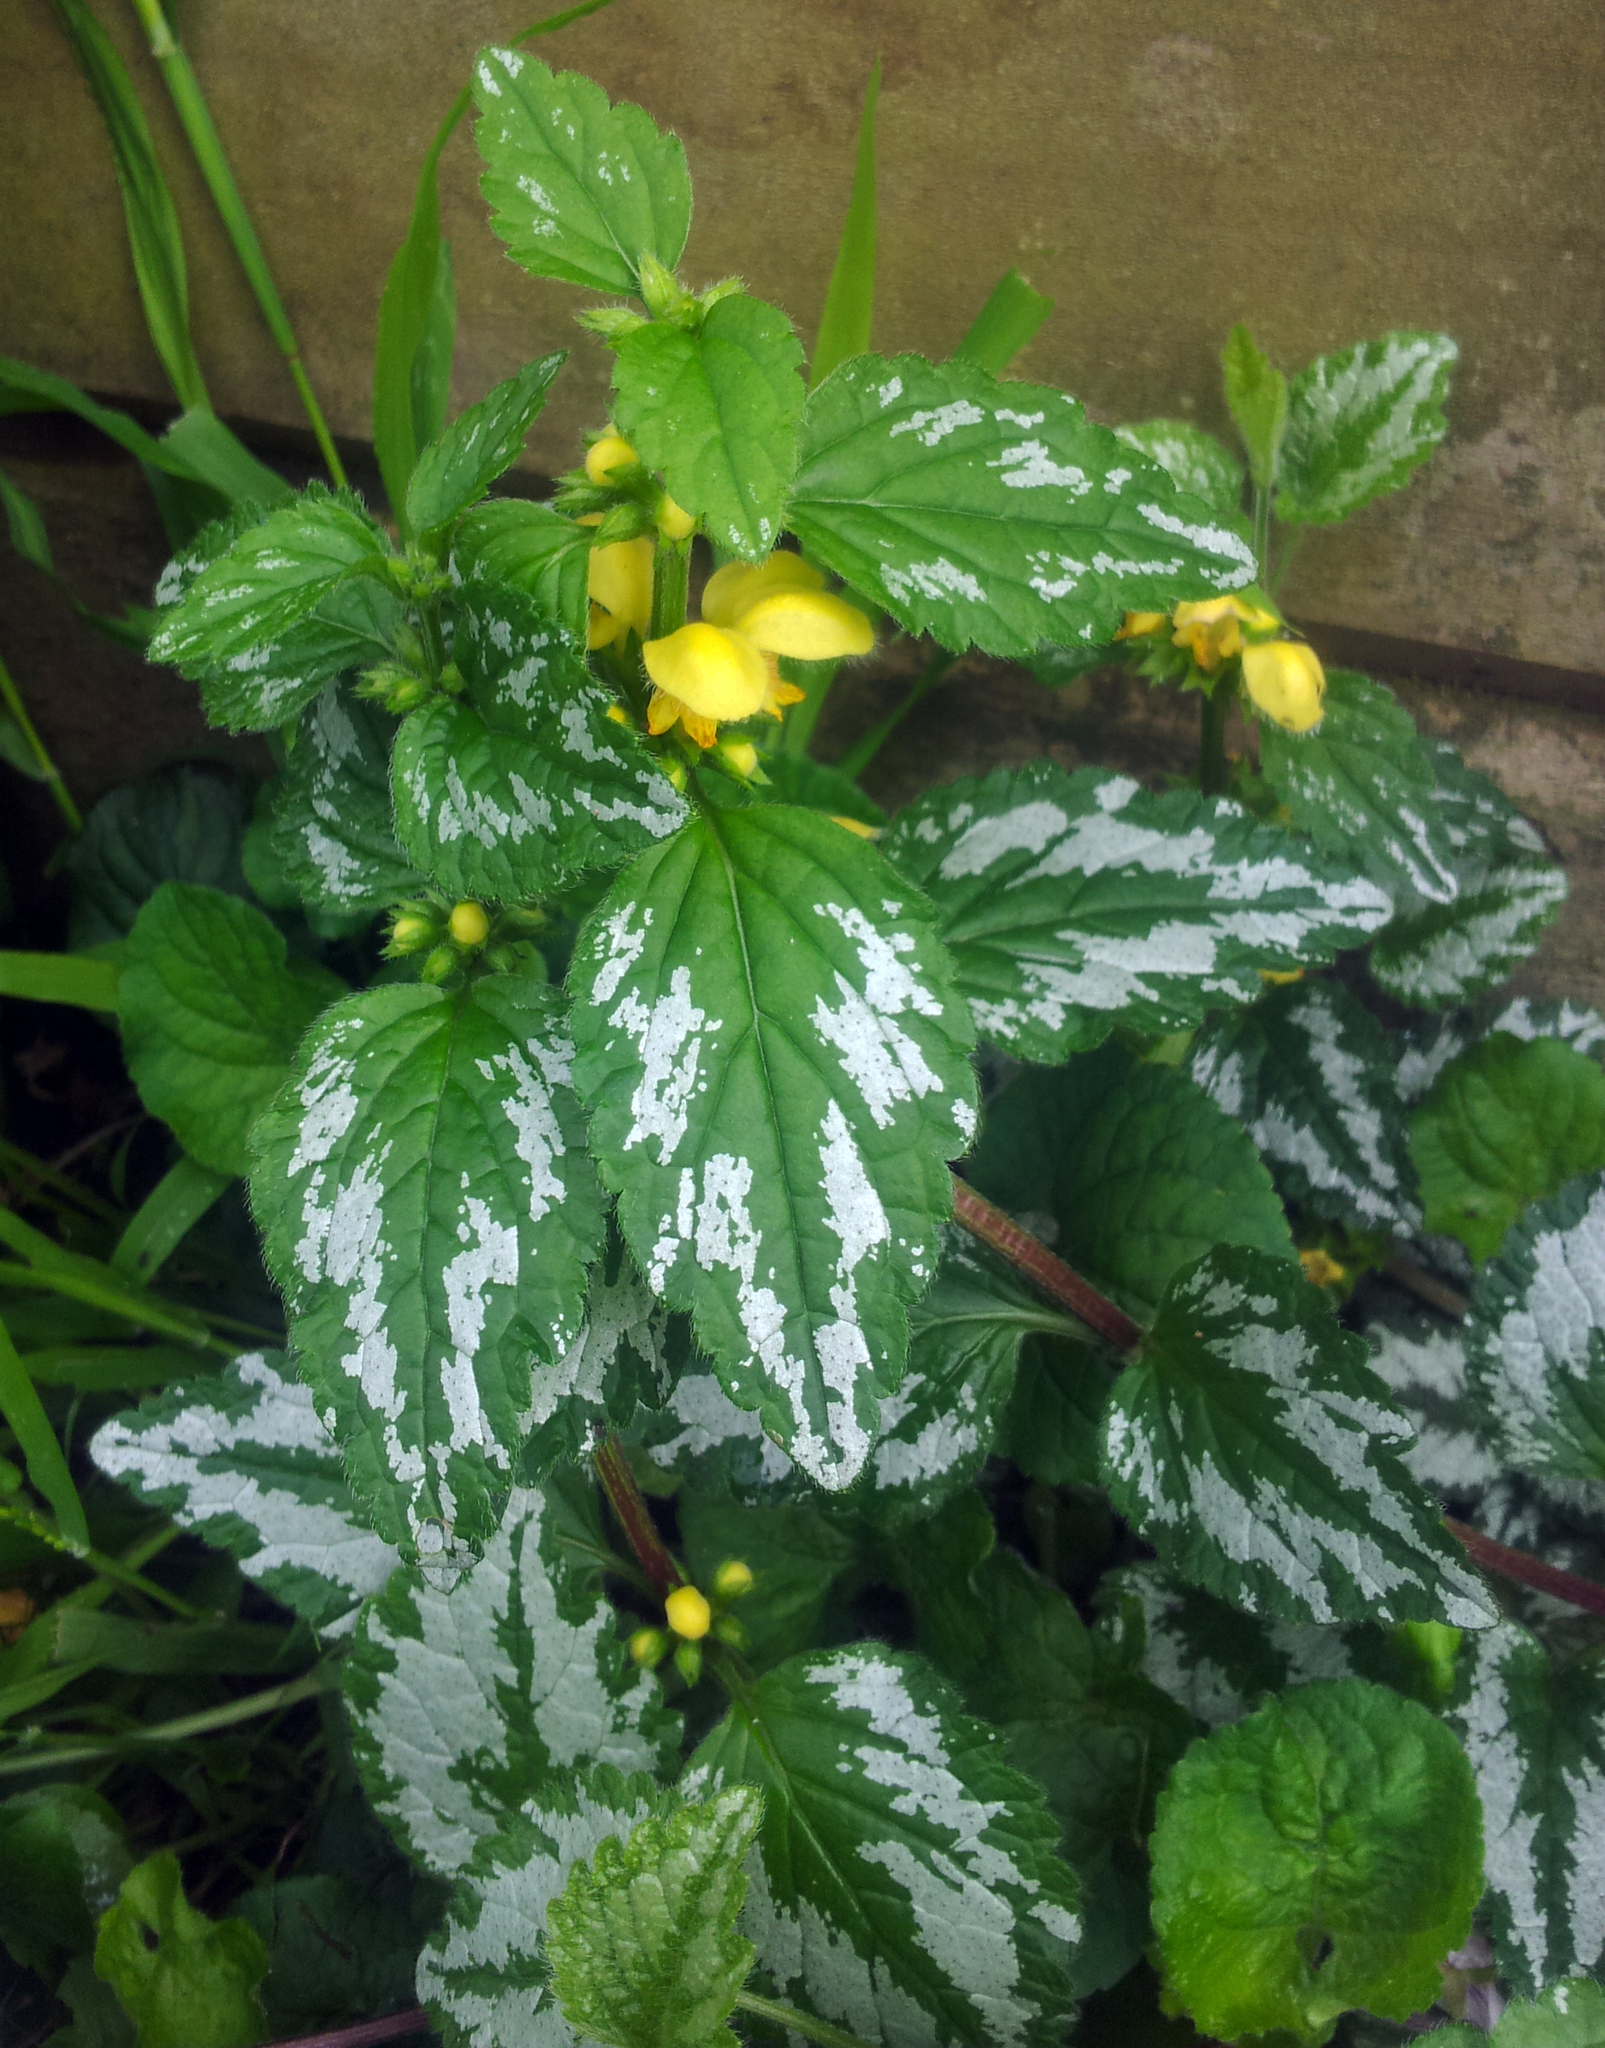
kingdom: Plantae
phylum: Tracheophyta
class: Magnoliopsida
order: Lamiales
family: Lamiaceae
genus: Lamium
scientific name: Lamium galeobdolon
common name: Yellow archangel
